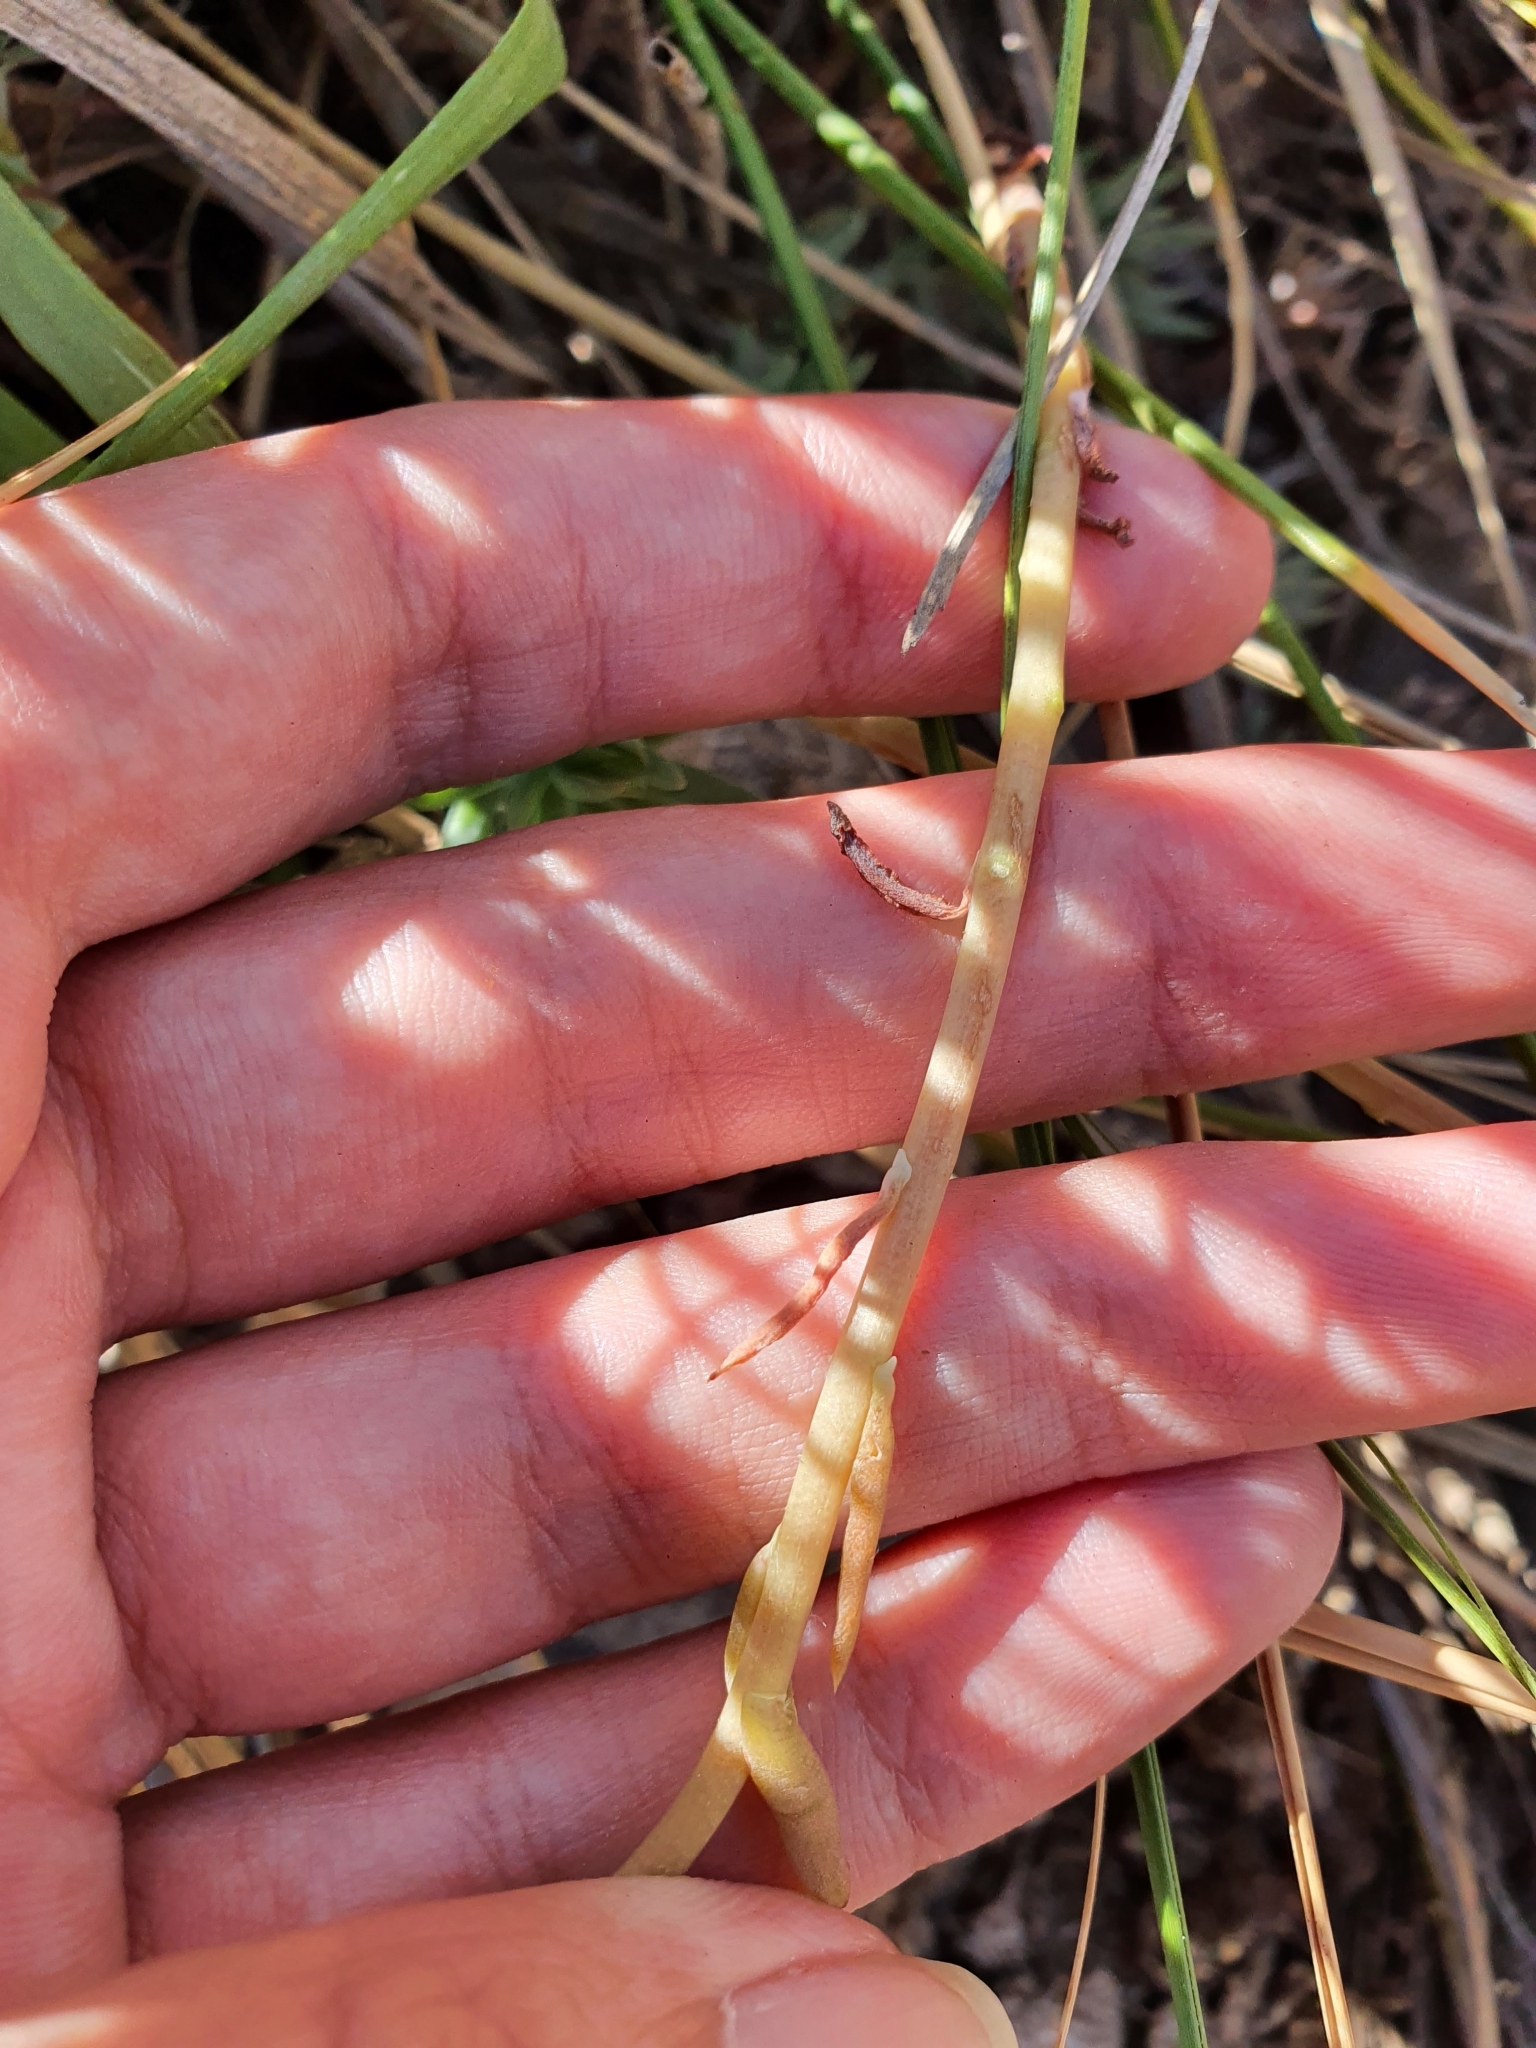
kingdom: Plantae
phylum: Tracheophyta
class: Magnoliopsida
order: Saxifragales
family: Crassulaceae
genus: Petrosedum
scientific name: Petrosedum sediforme
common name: Pale stonecrop
